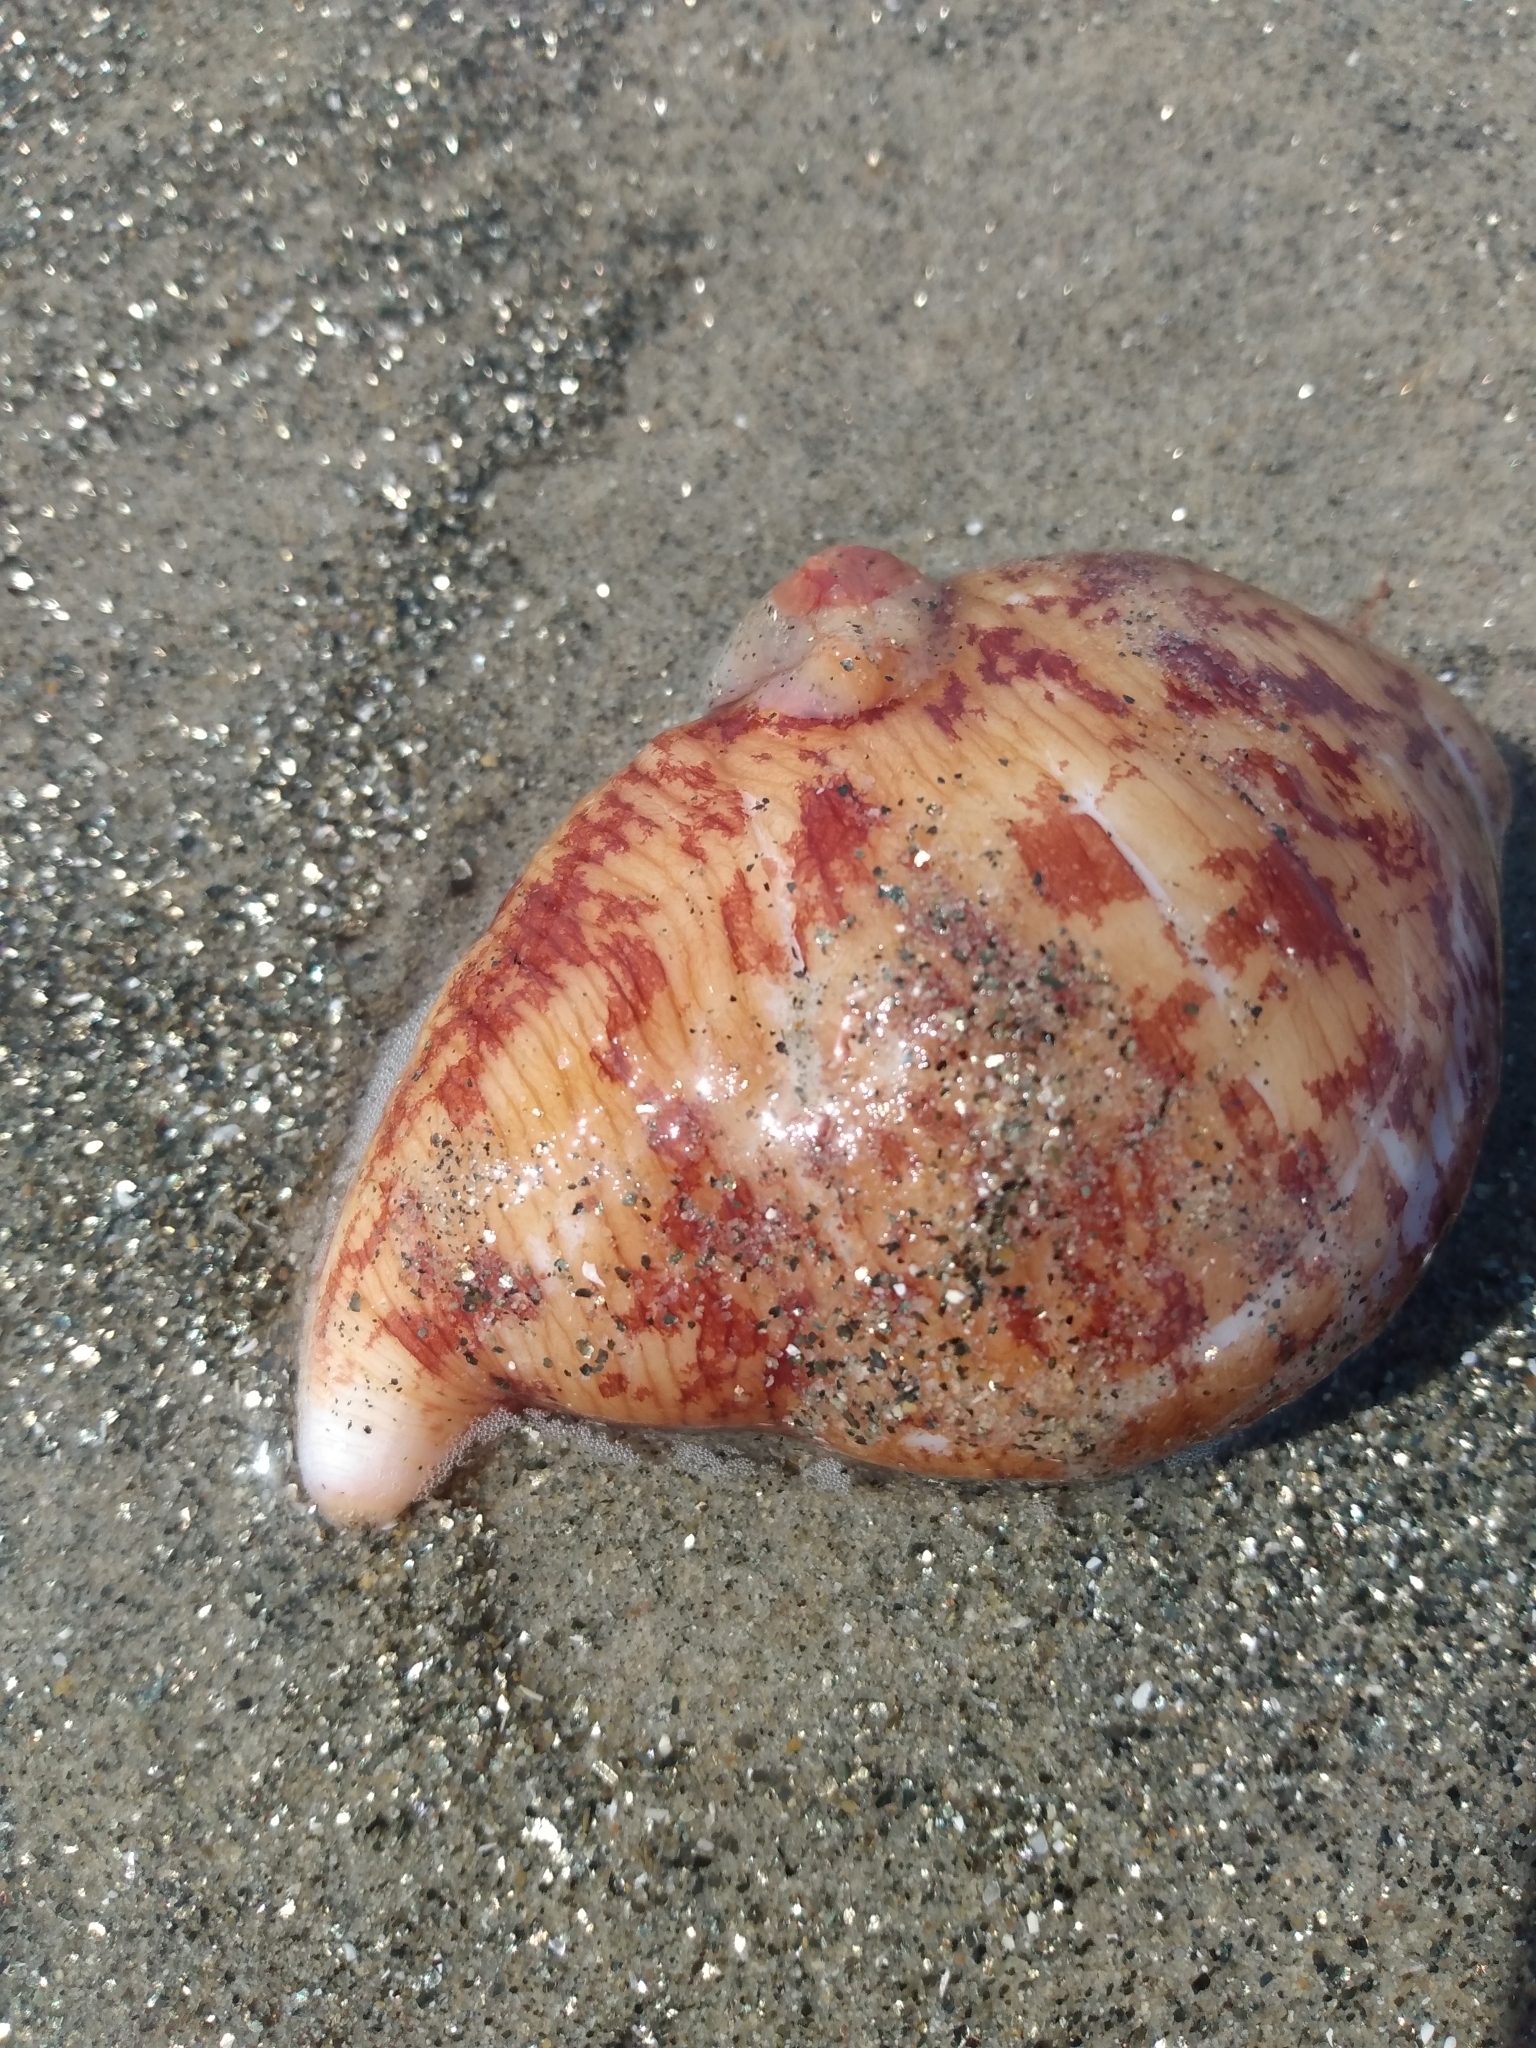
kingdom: Animalia
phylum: Echinodermata
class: Holothuroidea
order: Molpadida
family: Caudinidae
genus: Caudina
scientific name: Caudina arenicola
